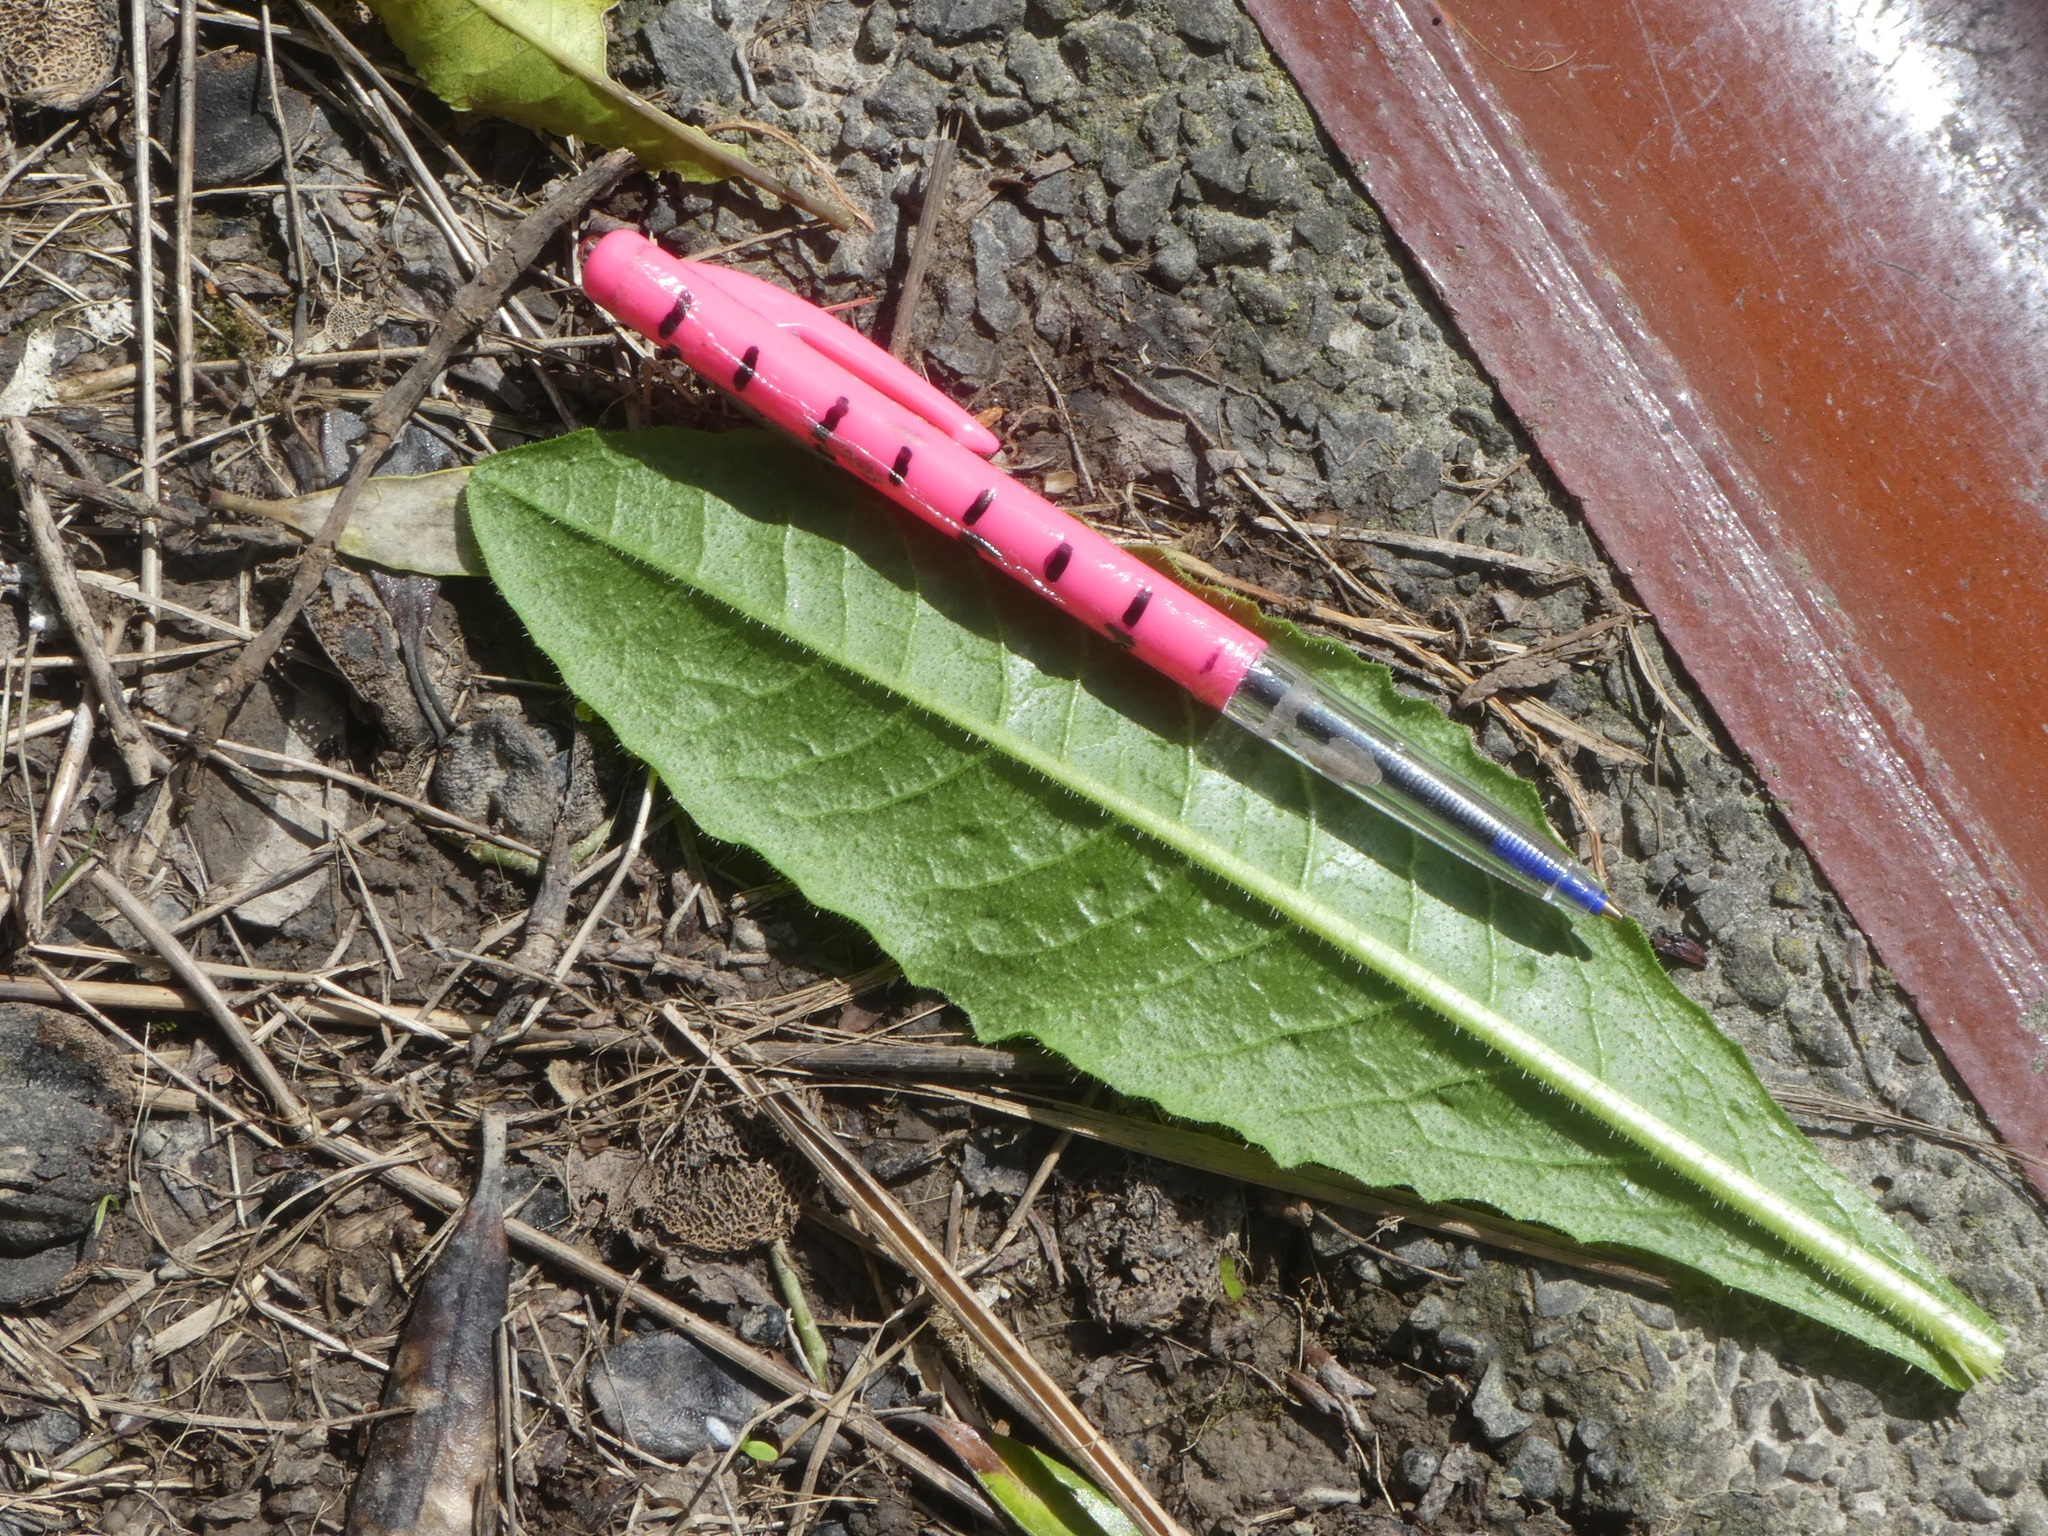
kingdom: Plantae
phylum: Tracheophyta
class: Magnoliopsida
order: Asterales
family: Asteraceae
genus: Helminthotheca
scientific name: Helminthotheca echioides
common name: Ox-tongue
